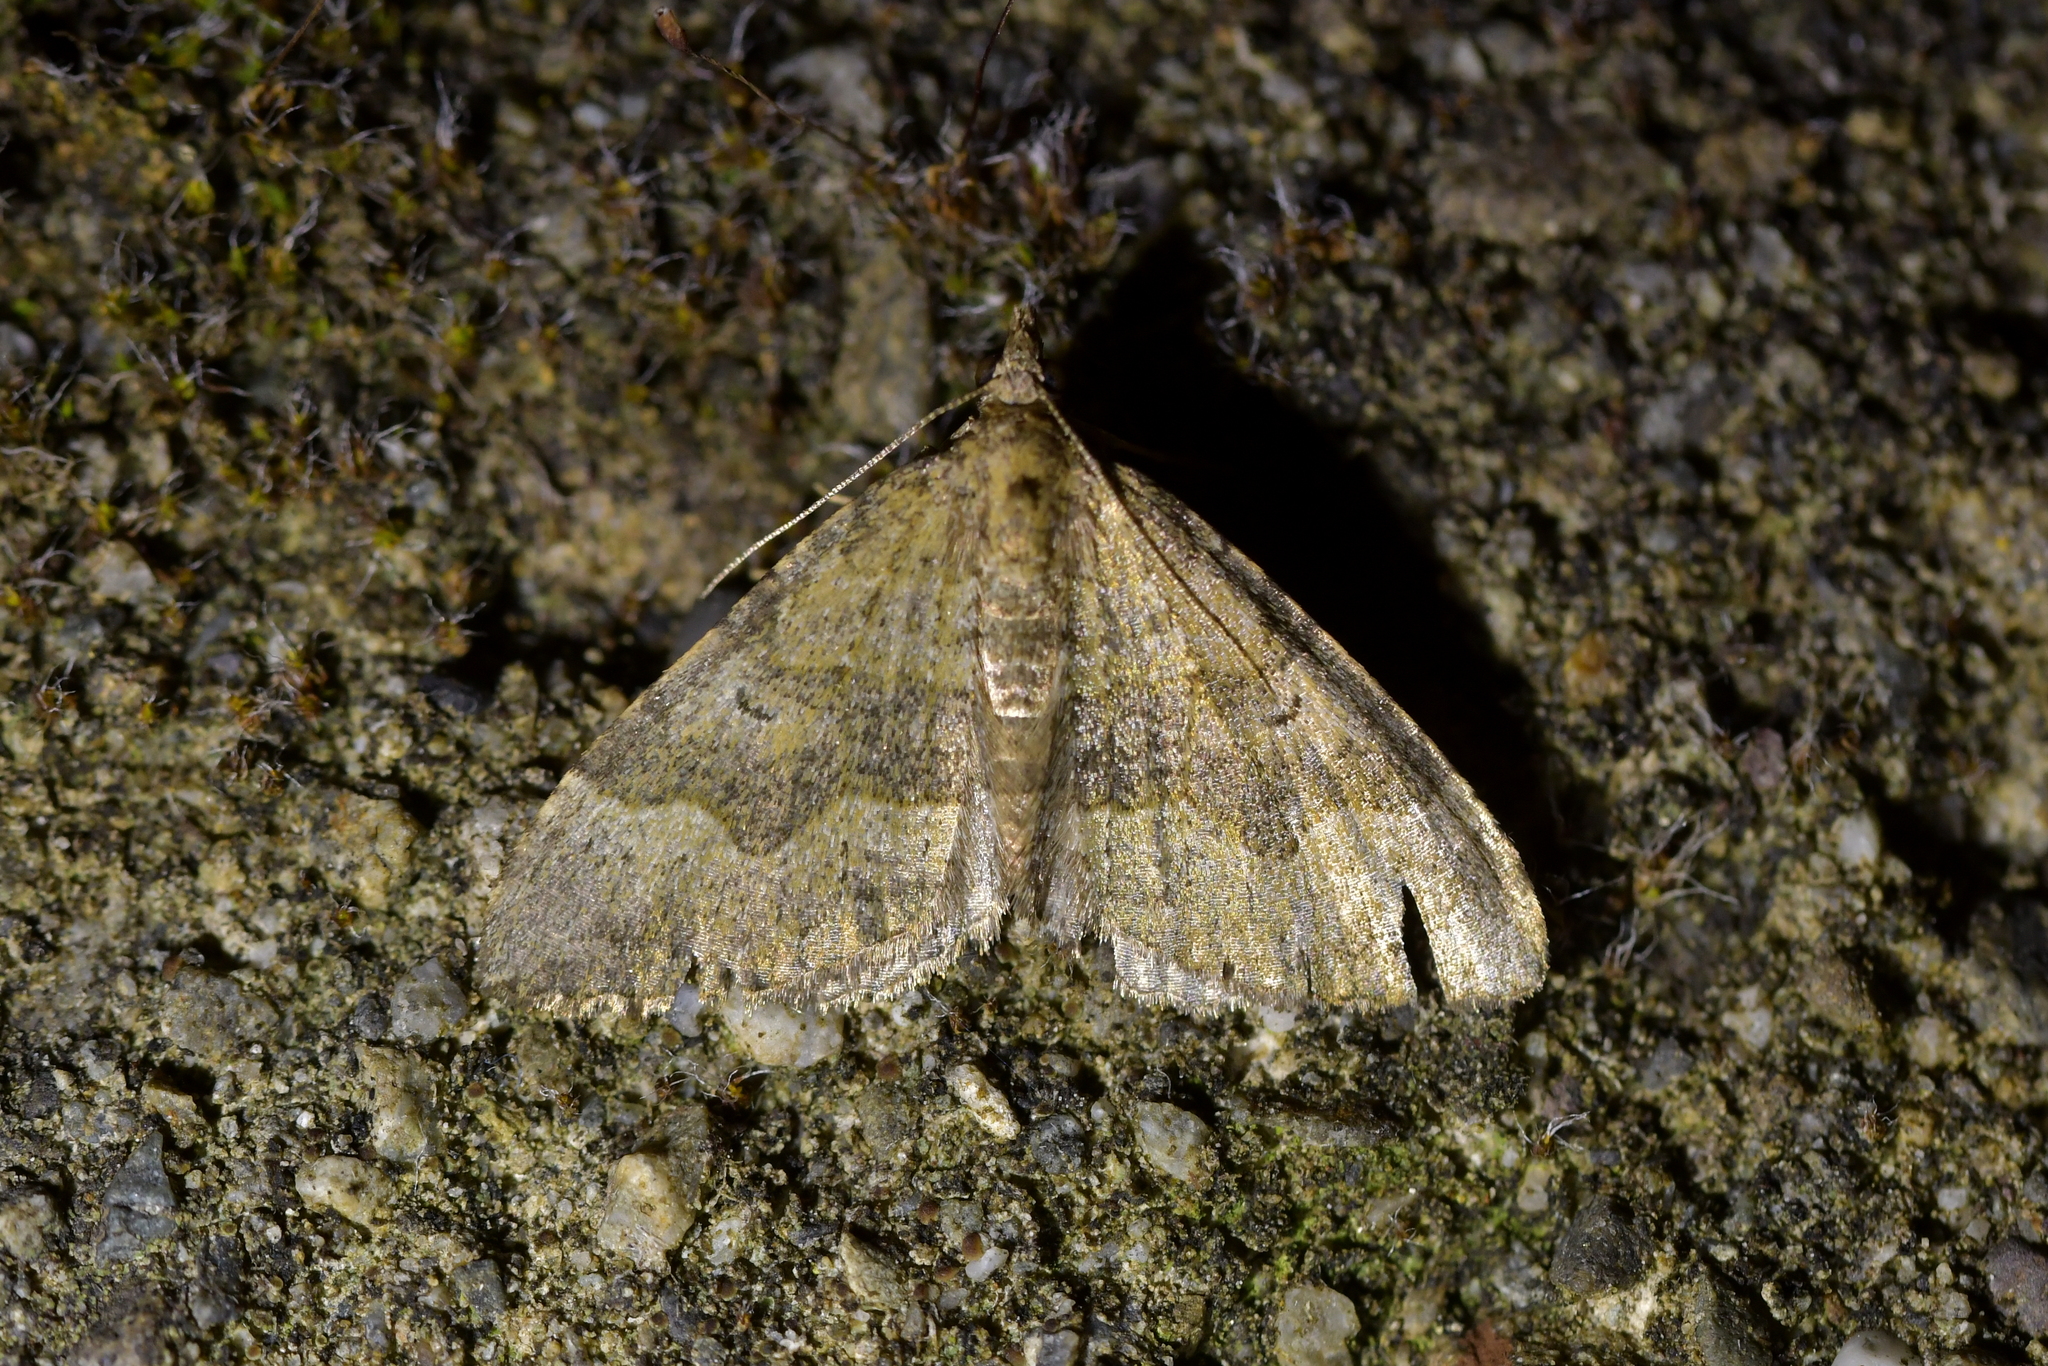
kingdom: Animalia
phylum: Arthropoda
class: Insecta
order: Lepidoptera
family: Geometridae
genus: Epyaxa
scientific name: Epyaxa rosearia
